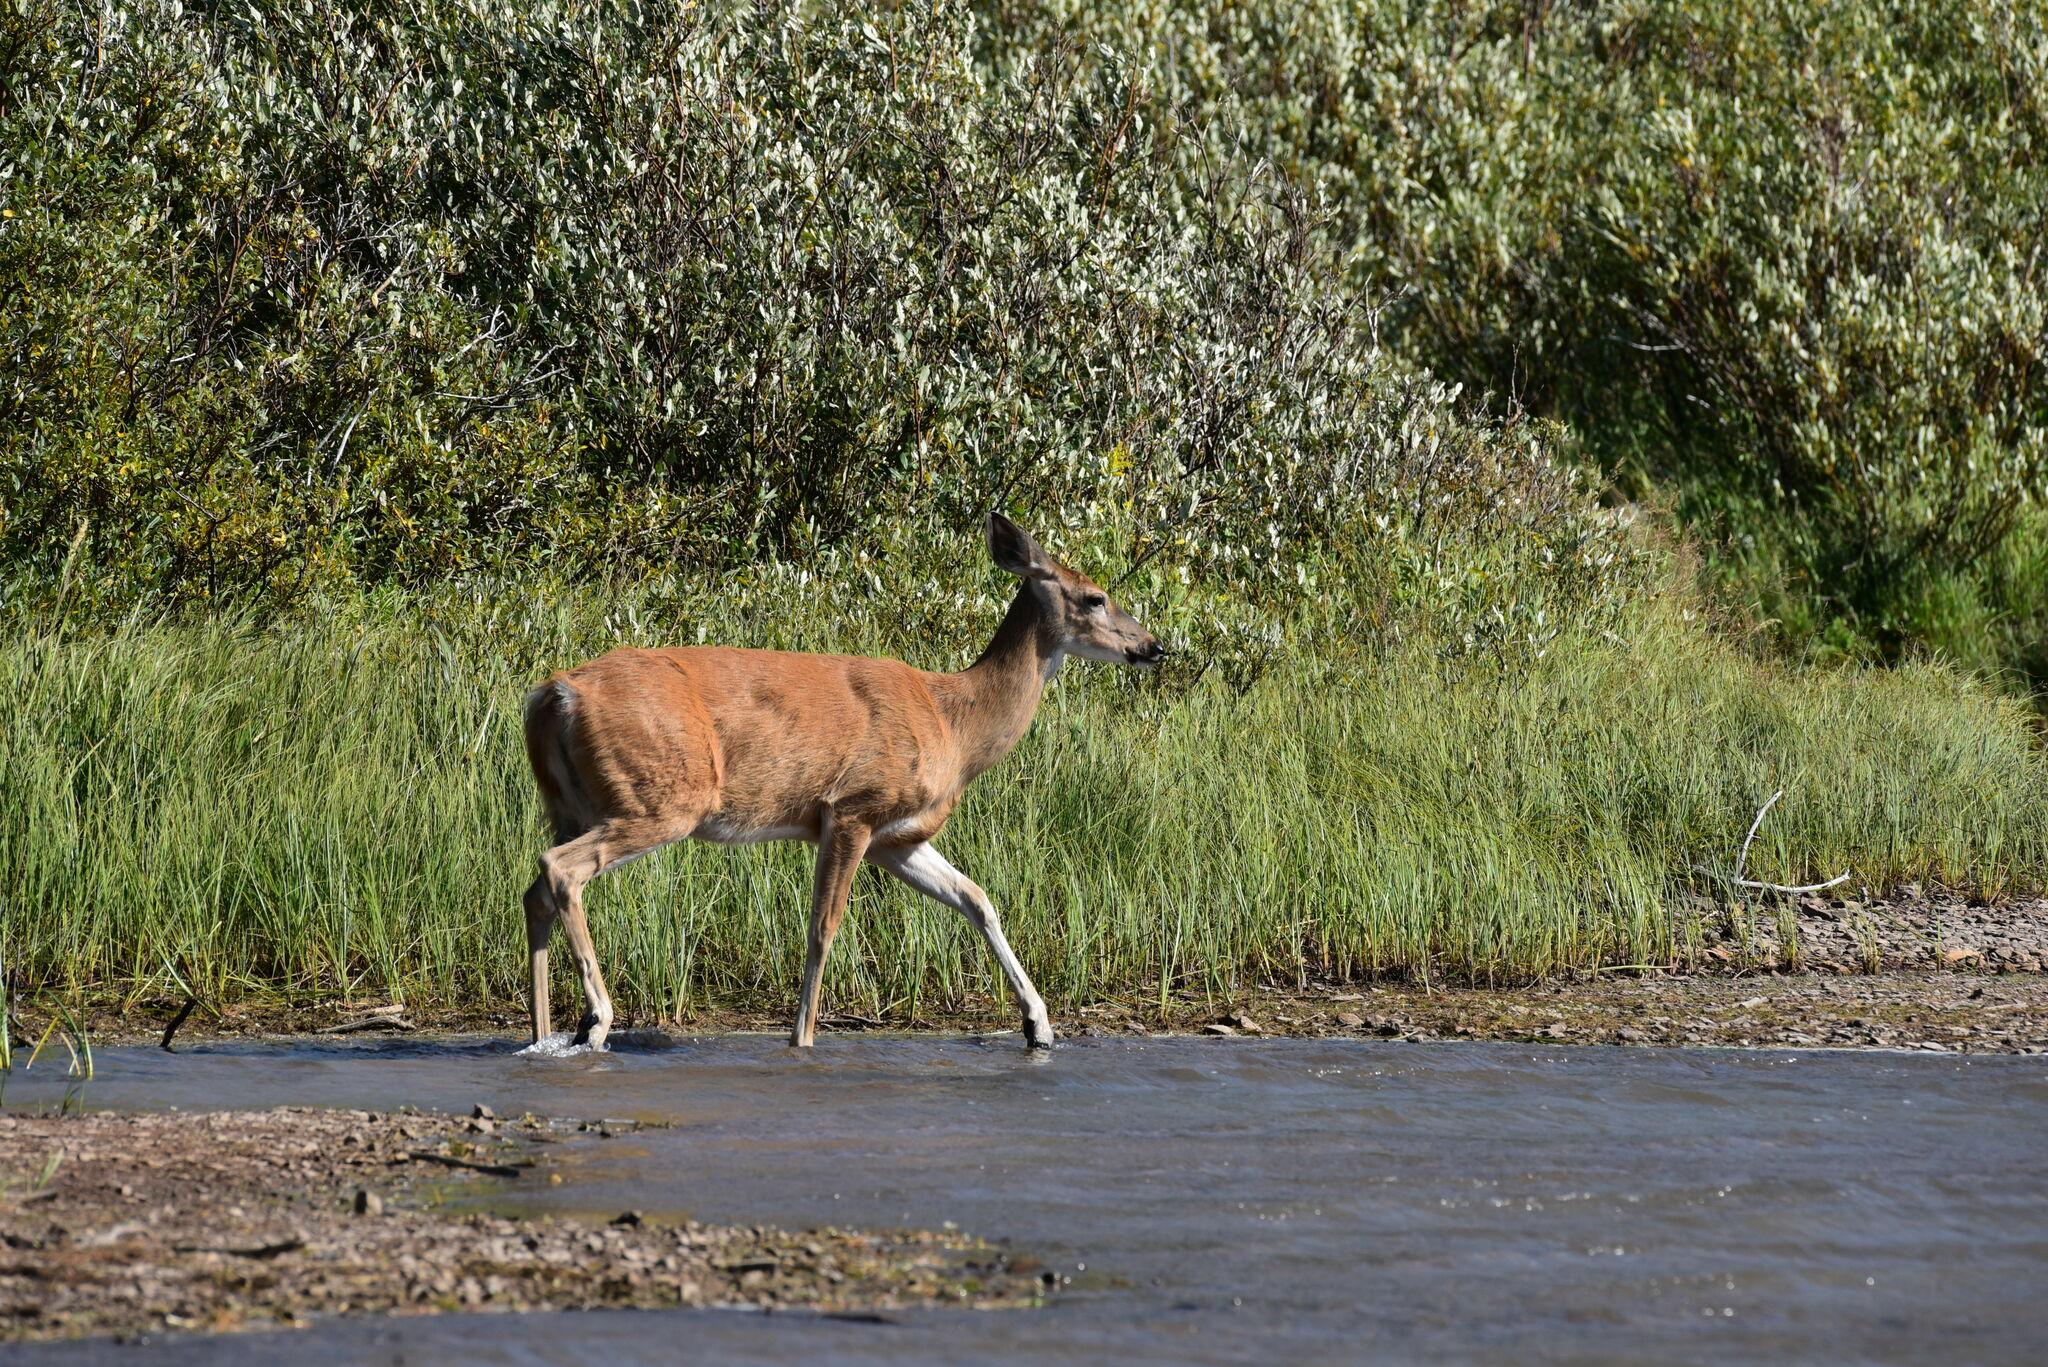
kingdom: Animalia
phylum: Chordata
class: Mammalia
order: Artiodactyla
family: Cervidae
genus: Odocoileus
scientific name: Odocoileus virginianus
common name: White-tailed deer
